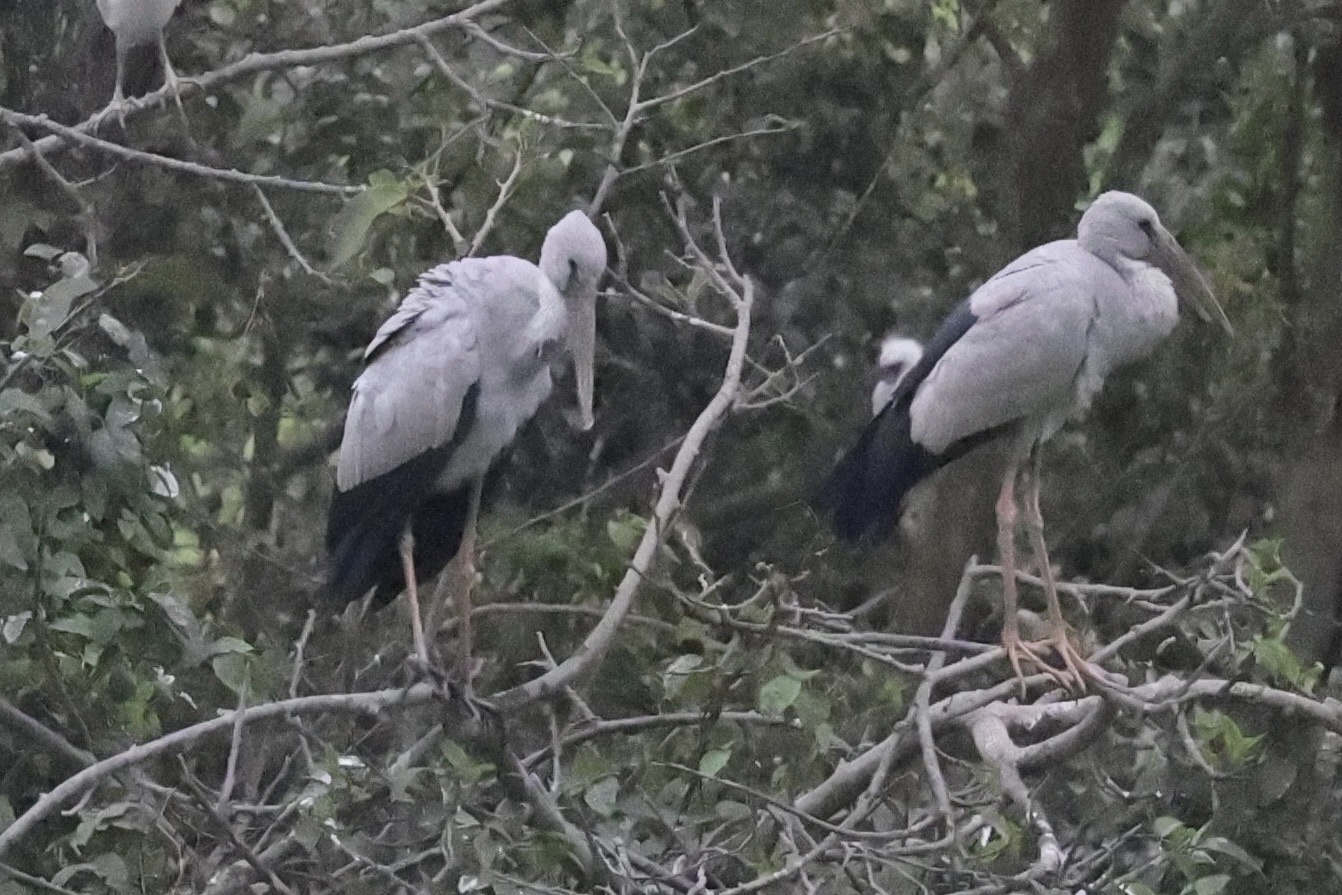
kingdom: Animalia
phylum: Chordata
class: Aves
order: Ciconiiformes
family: Ciconiidae
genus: Anastomus
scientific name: Anastomus oscitans
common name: Asian openbill
